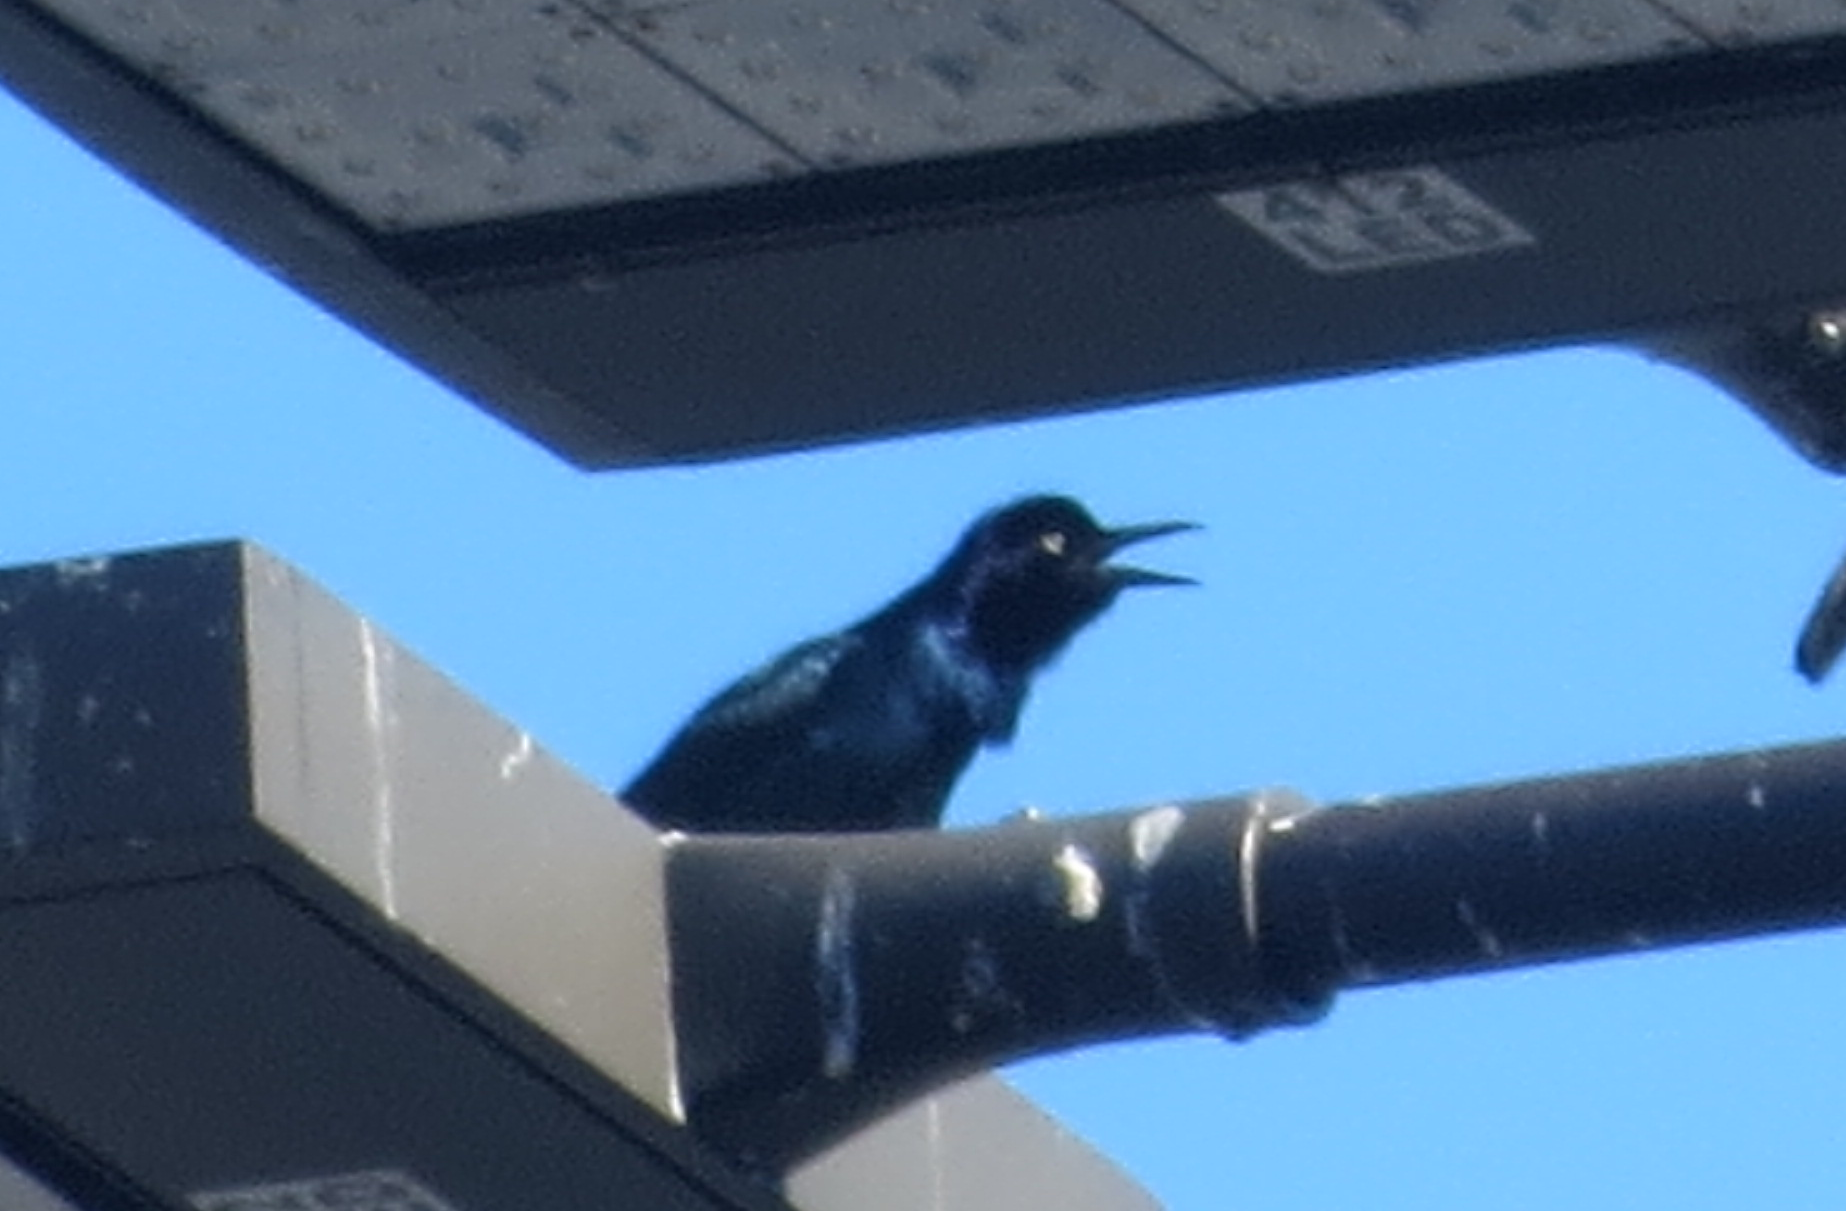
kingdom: Animalia
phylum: Chordata
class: Aves
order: Passeriformes
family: Icteridae
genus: Quiscalus
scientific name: Quiscalus major
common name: Boat-tailed grackle
